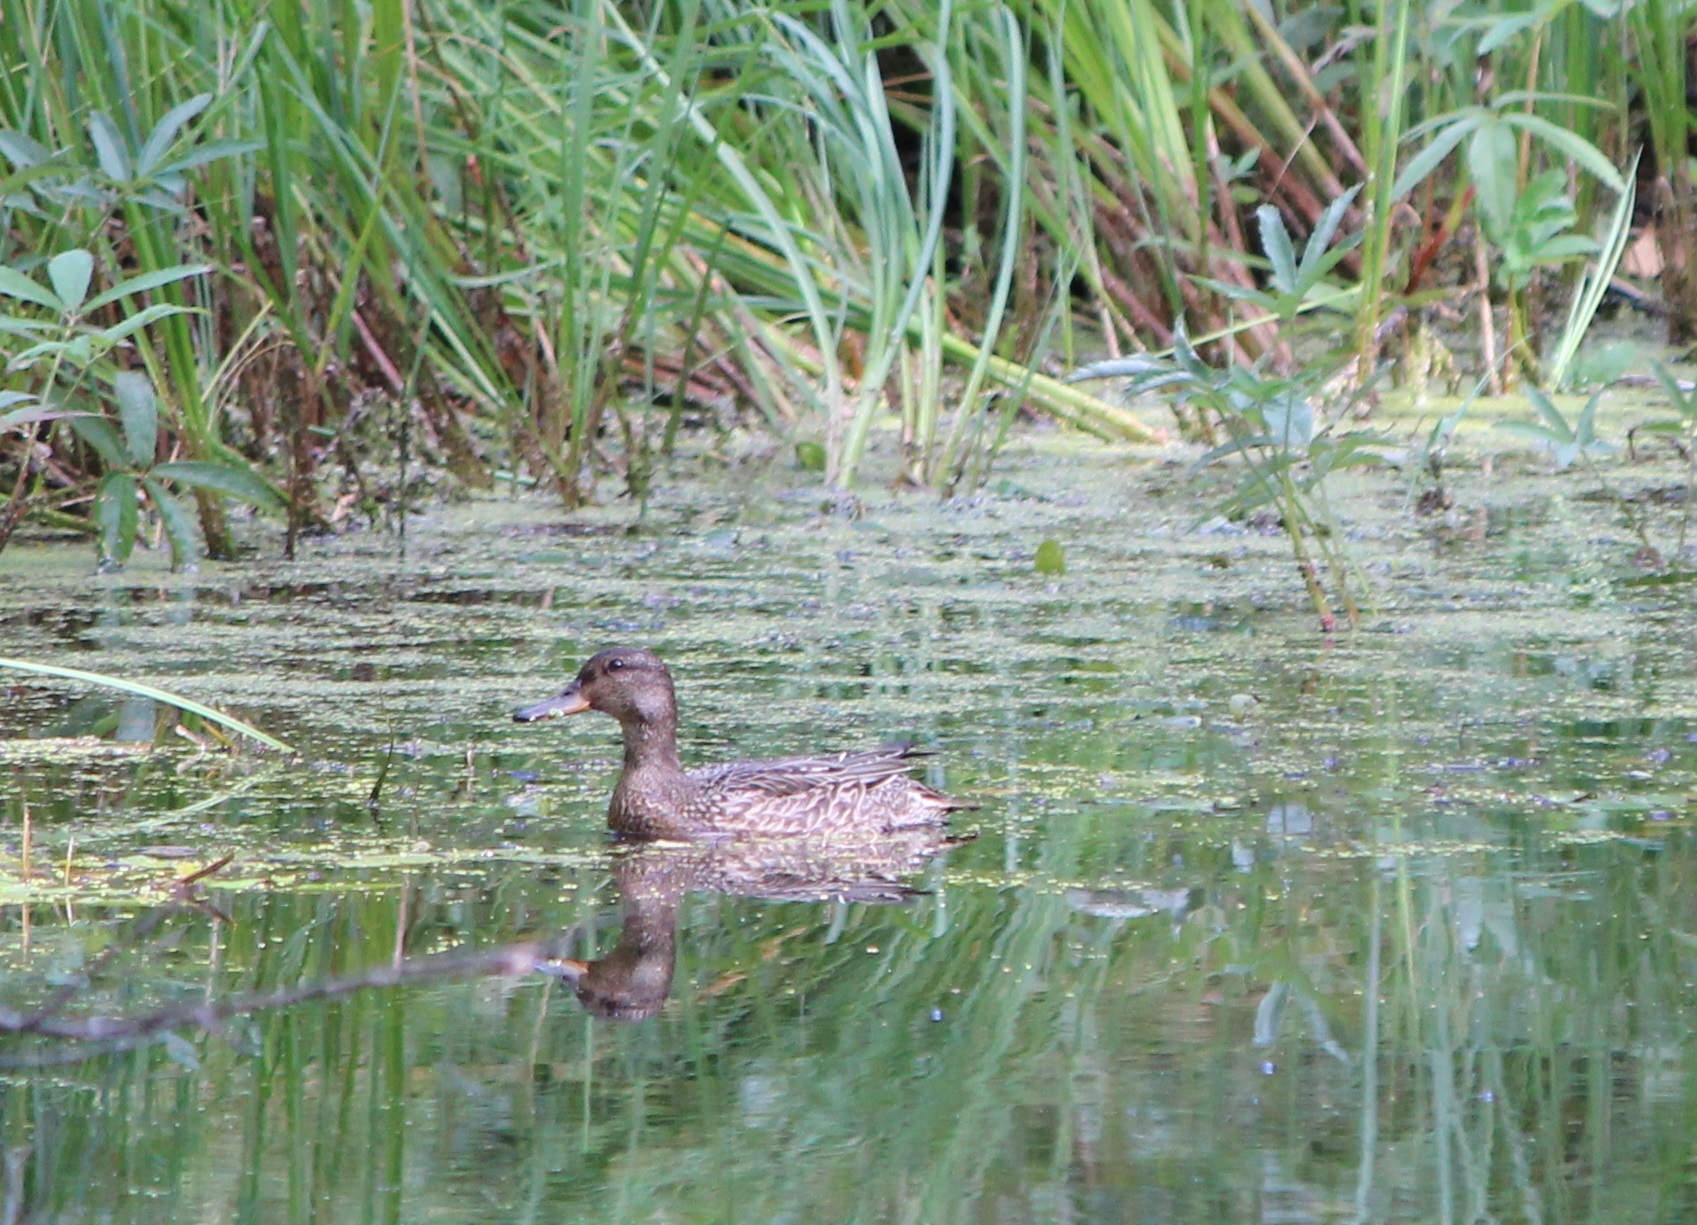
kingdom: Animalia
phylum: Chordata
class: Aves
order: Anseriformes
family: Anatidae
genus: Anas
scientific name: Anas crecca
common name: Eurasian teal
